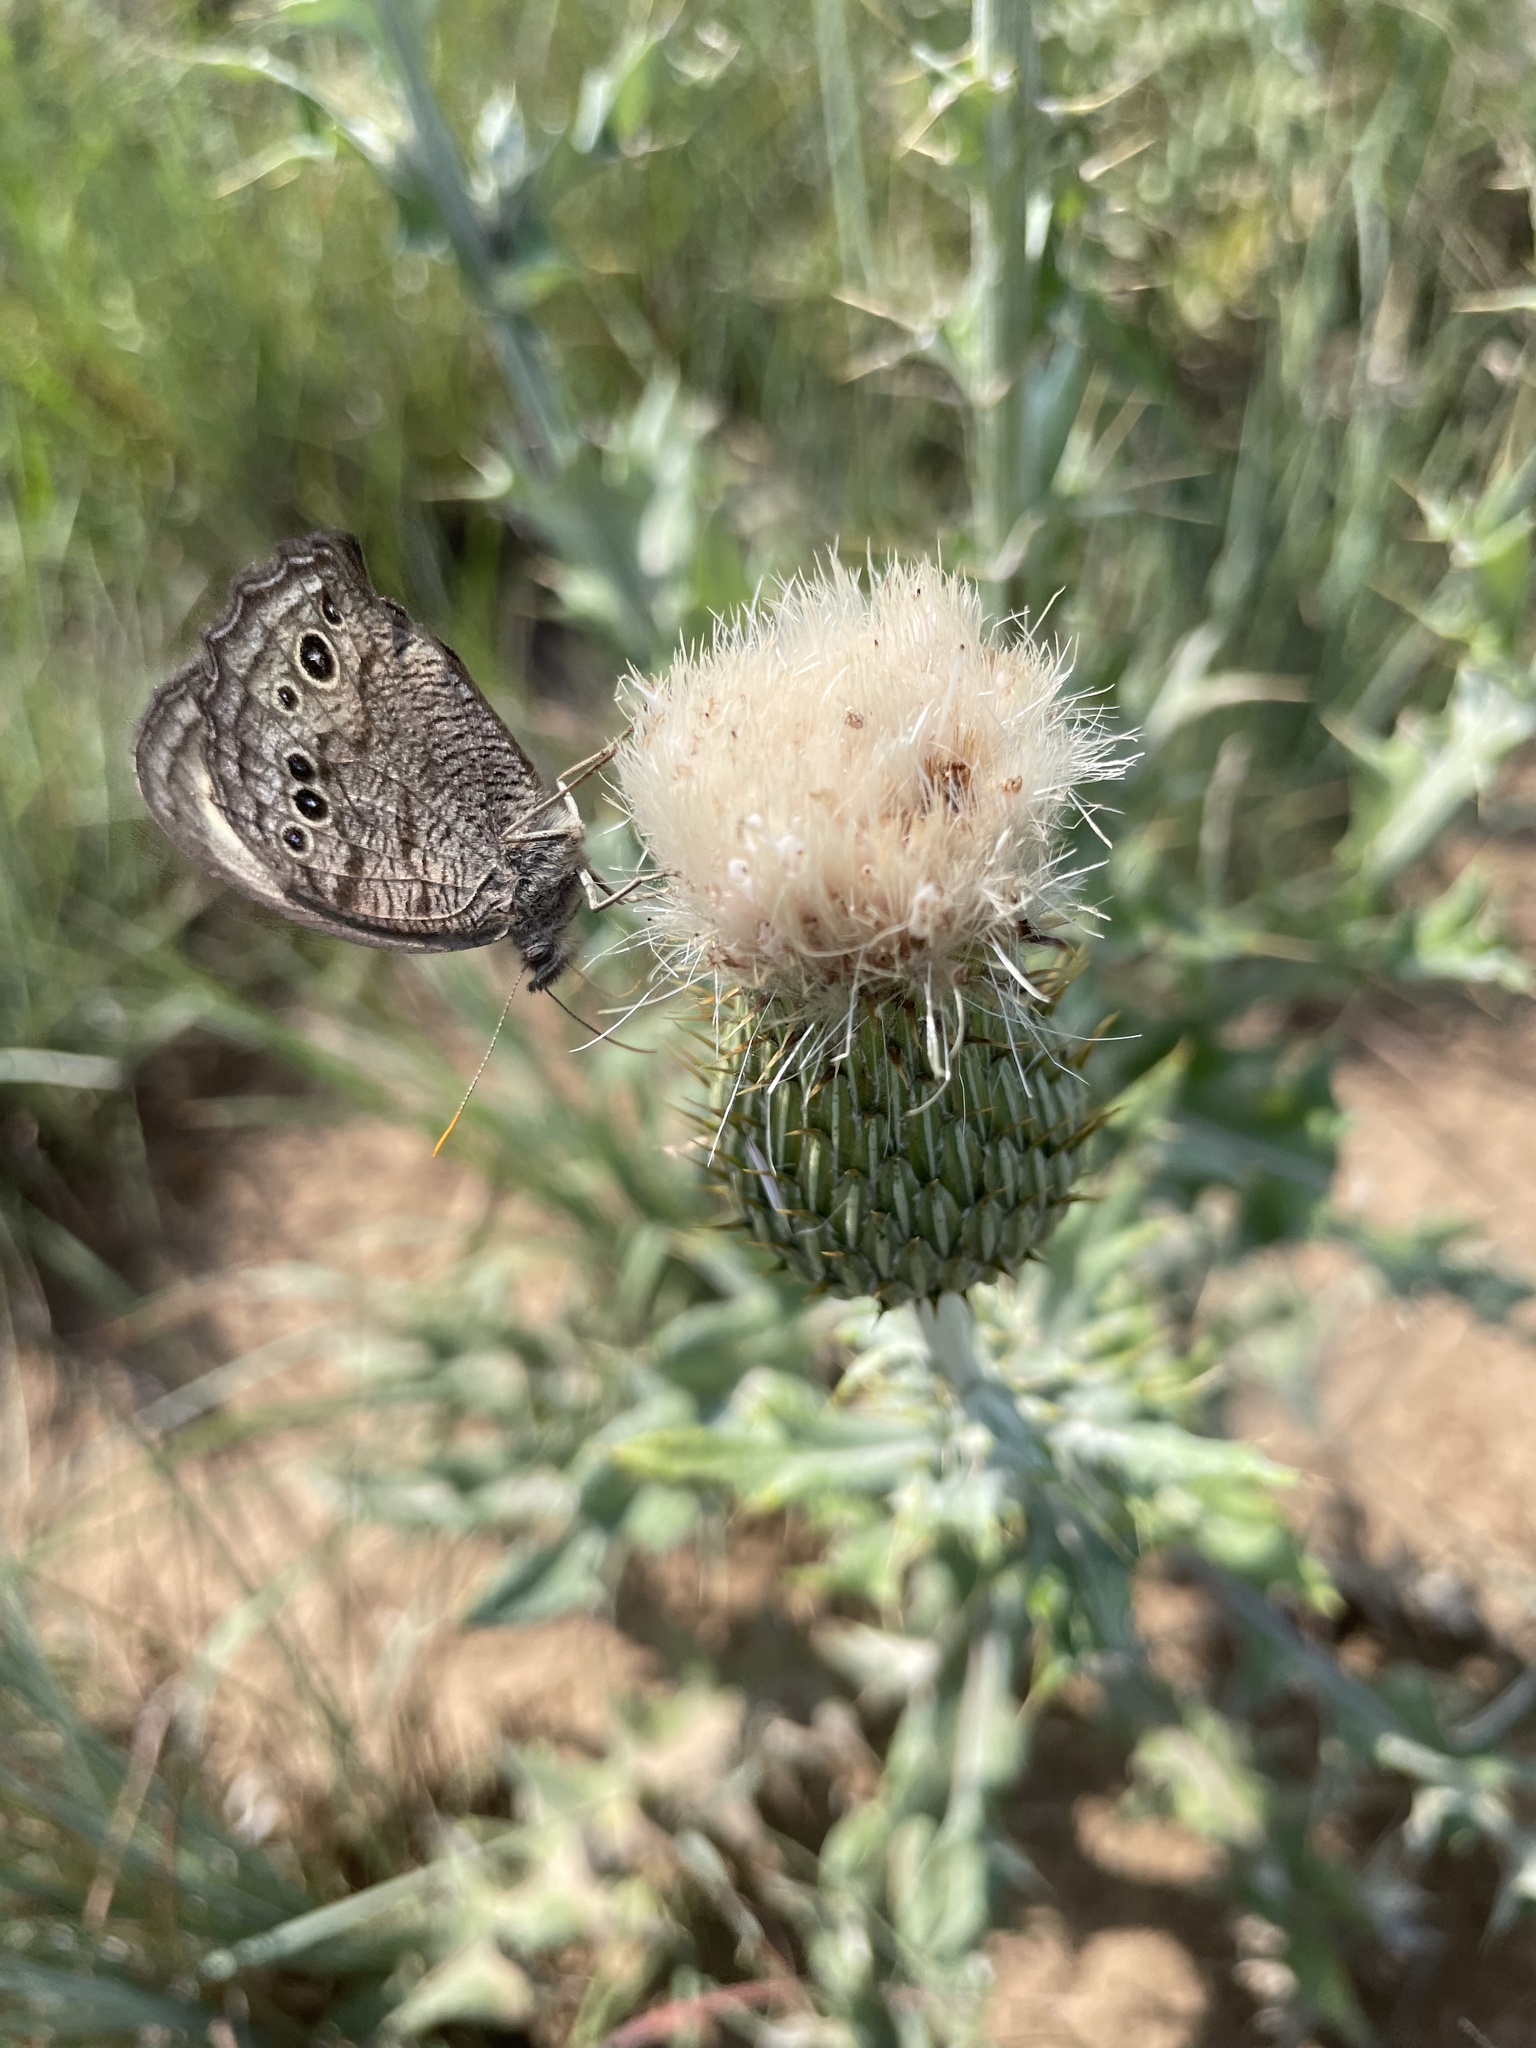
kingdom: Animalia
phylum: Arthropoda
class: Insecta
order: Lepidoptera
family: Nymphalidae
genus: Cercyonis
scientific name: Cercyonis pegala
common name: Common wood-nymph
